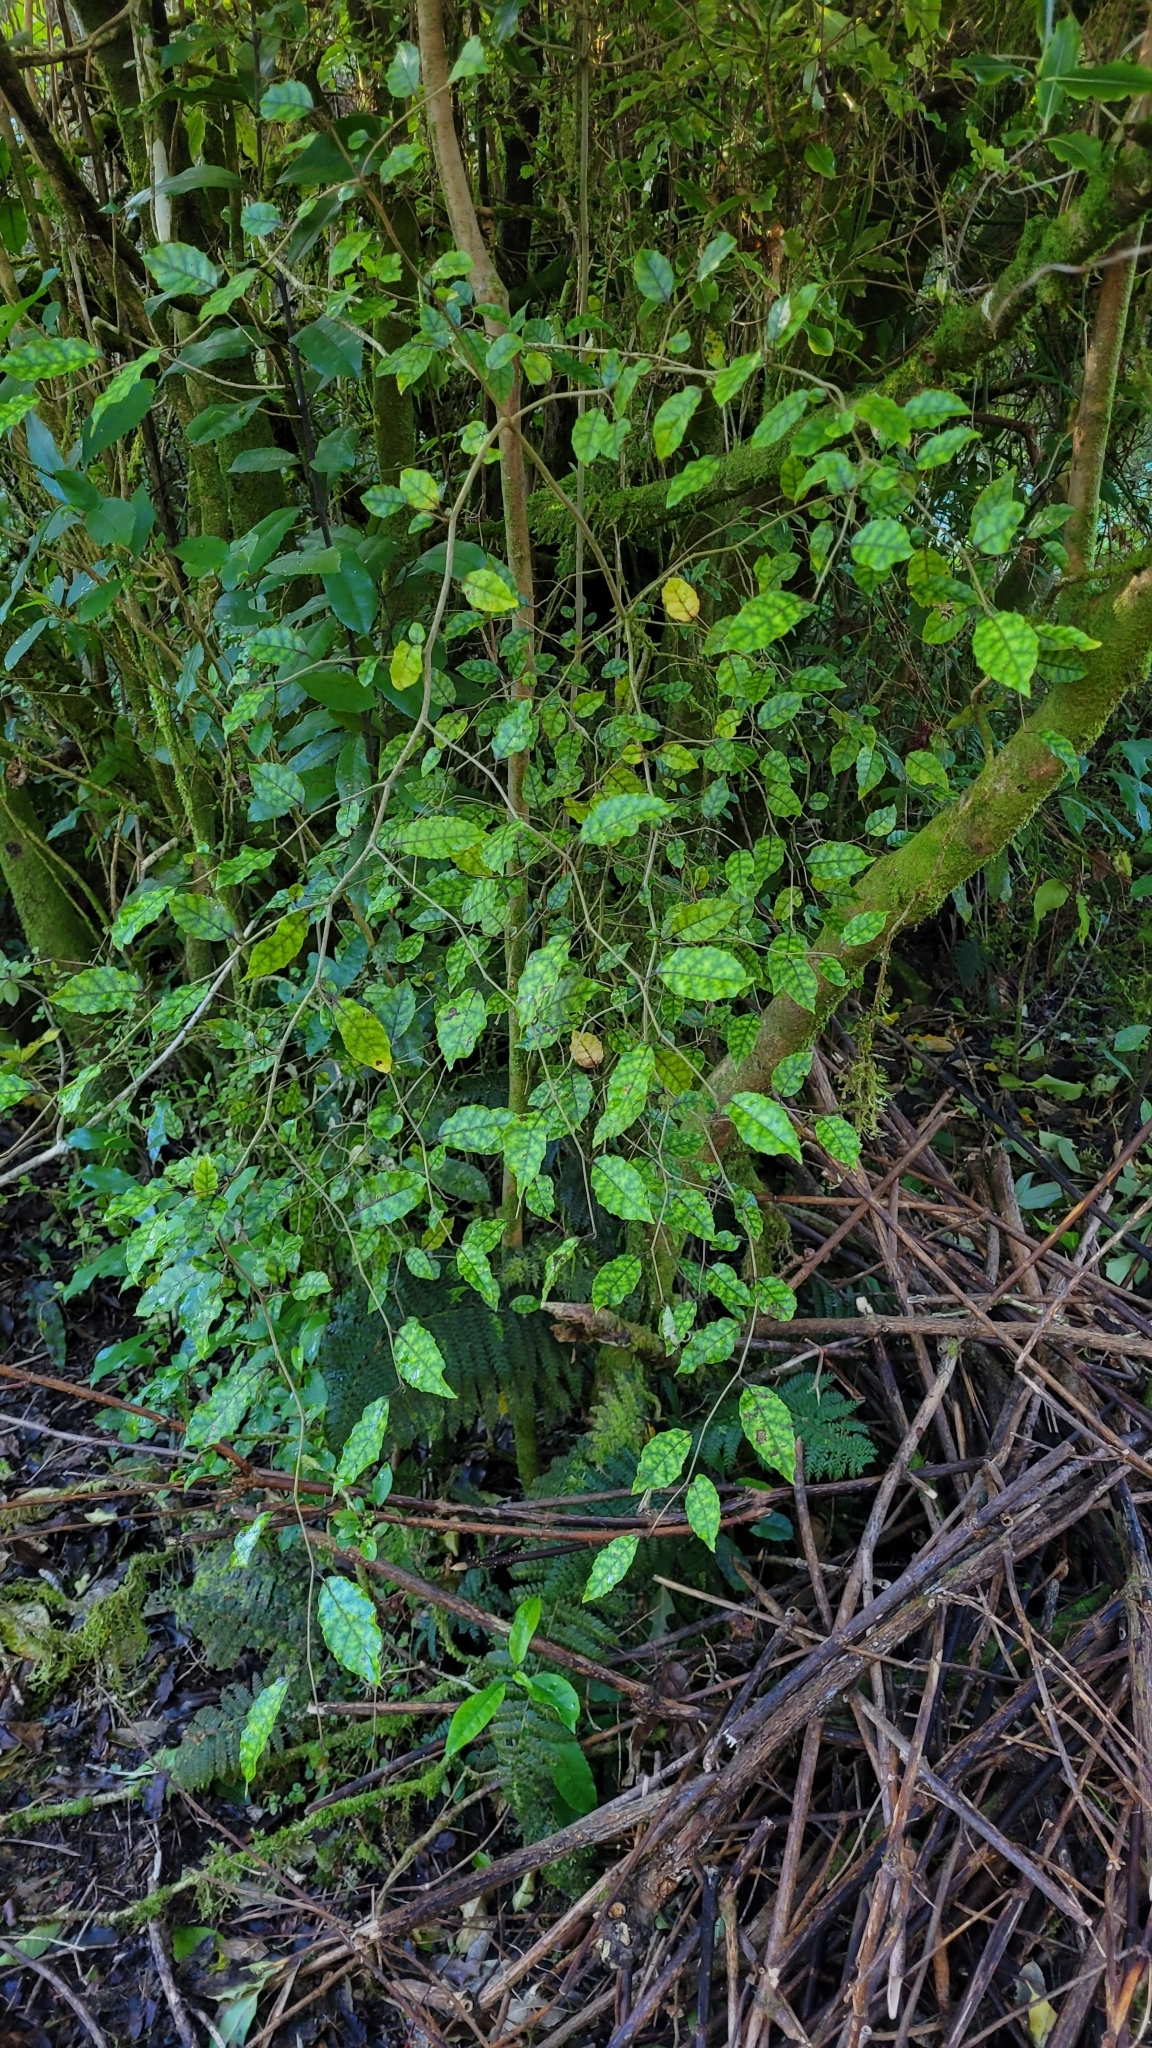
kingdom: Plantae
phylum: Tracheophyta
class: Magnoliopsida
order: Asterales
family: Rousseaceae
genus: Carpodetus
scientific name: Carpodetus serratus
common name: White mapau
